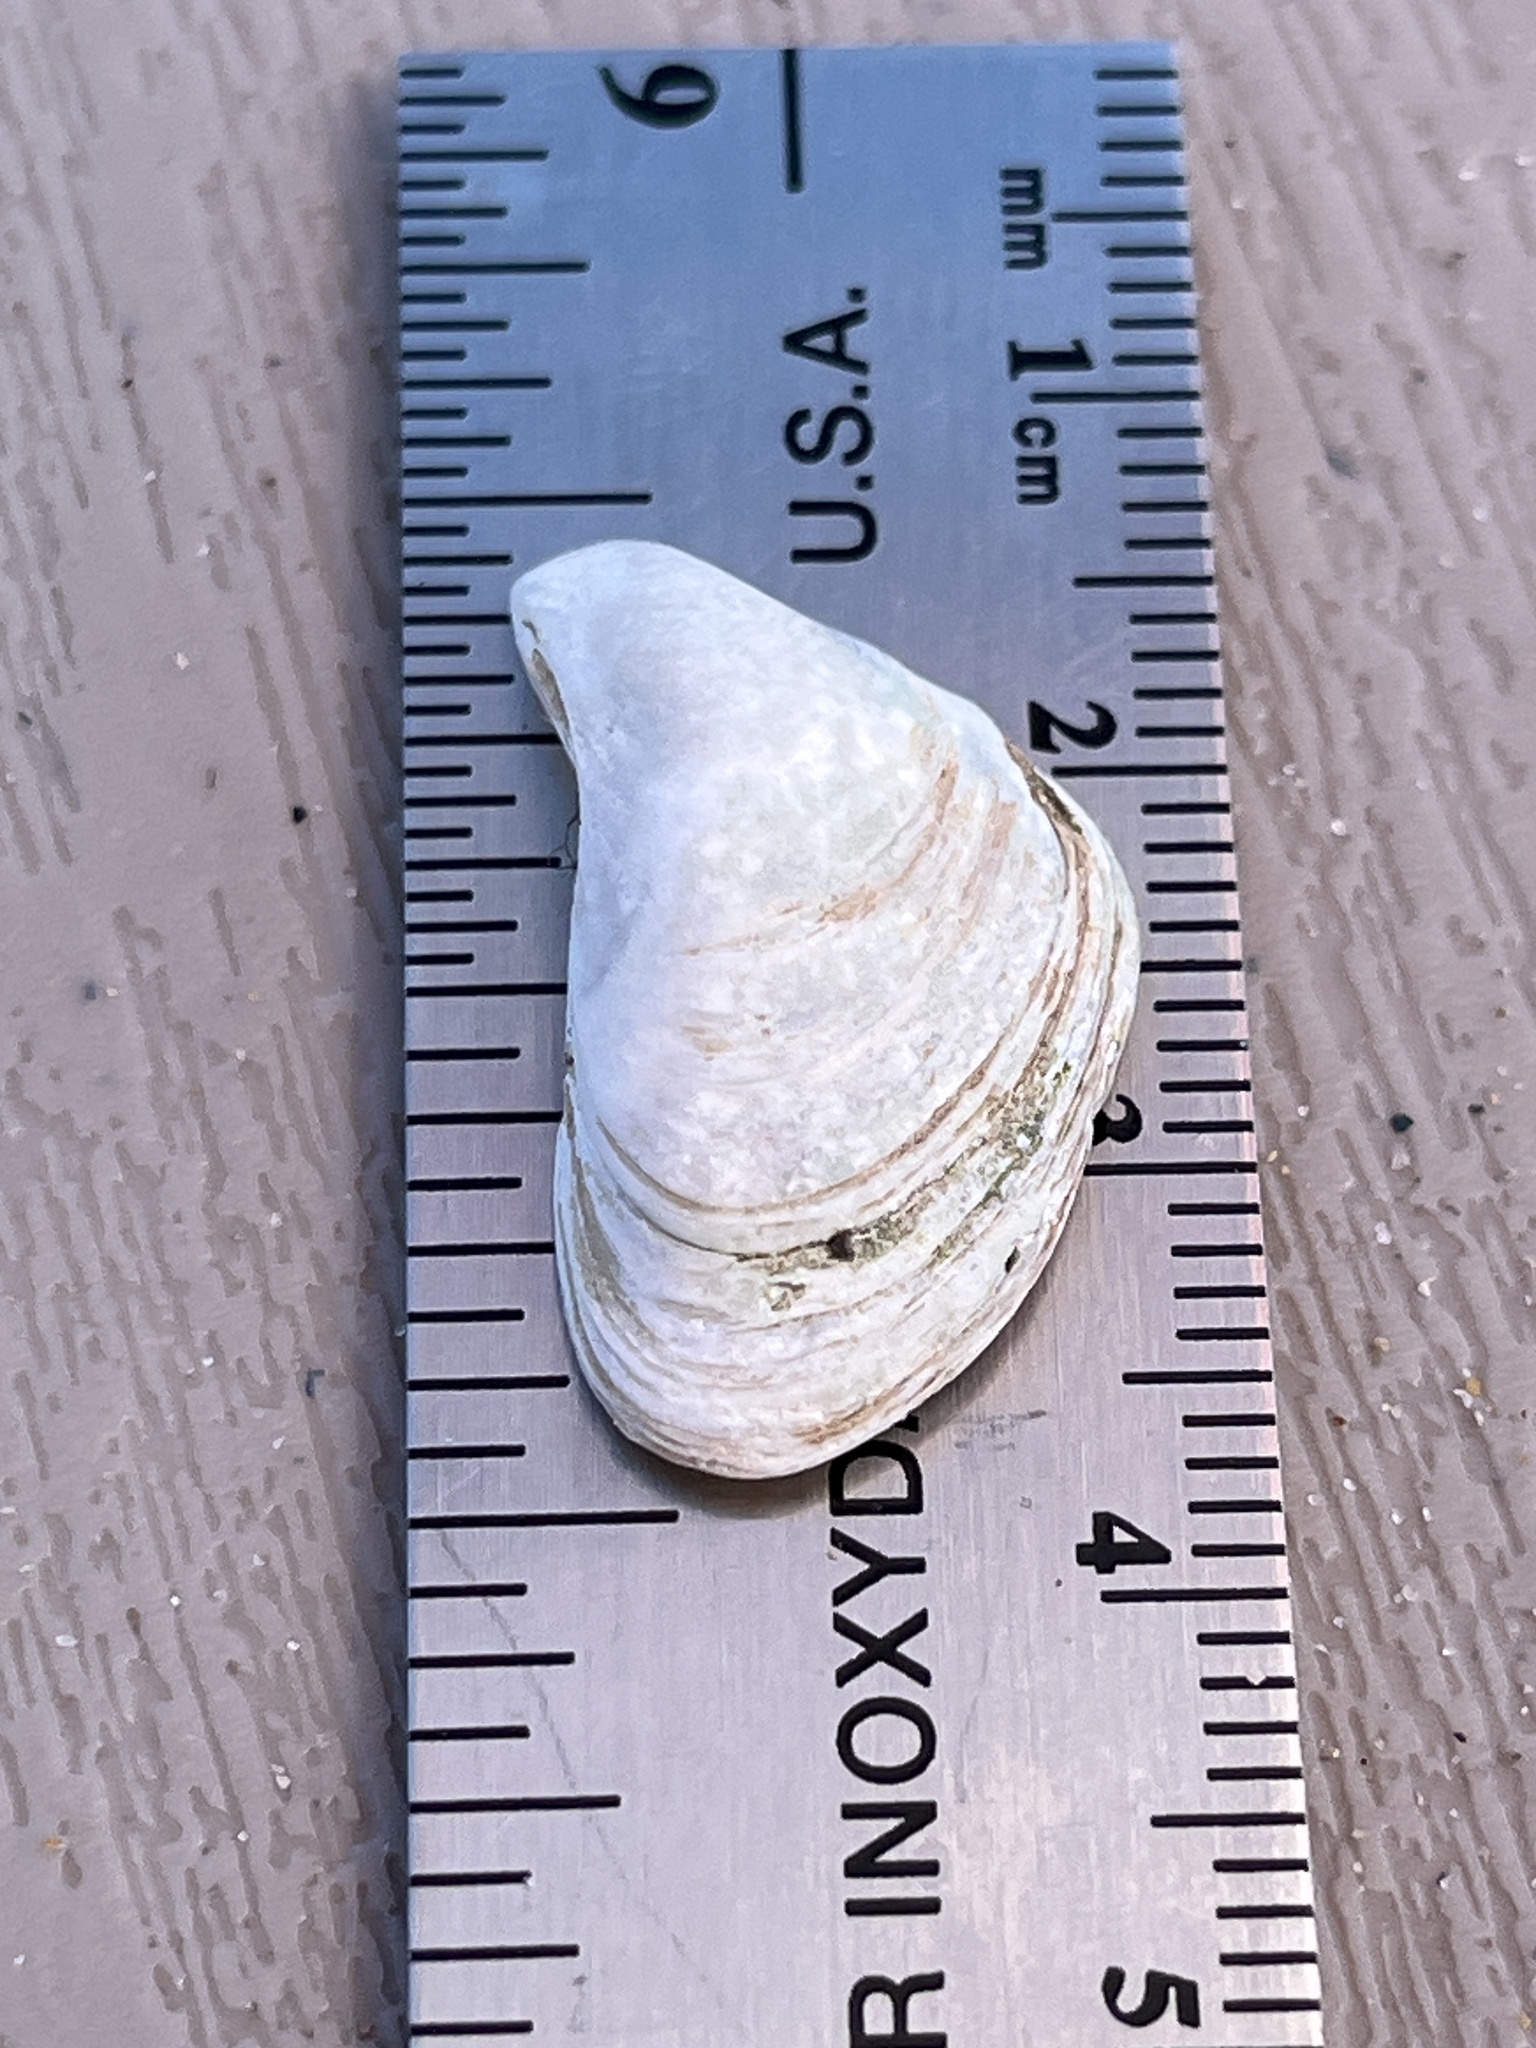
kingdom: Animalia
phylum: Mollusca
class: Bivalvia
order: Myida
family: Dreissenidae
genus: Dreissena
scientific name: Dreissena bugensis
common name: Quagga mussel
